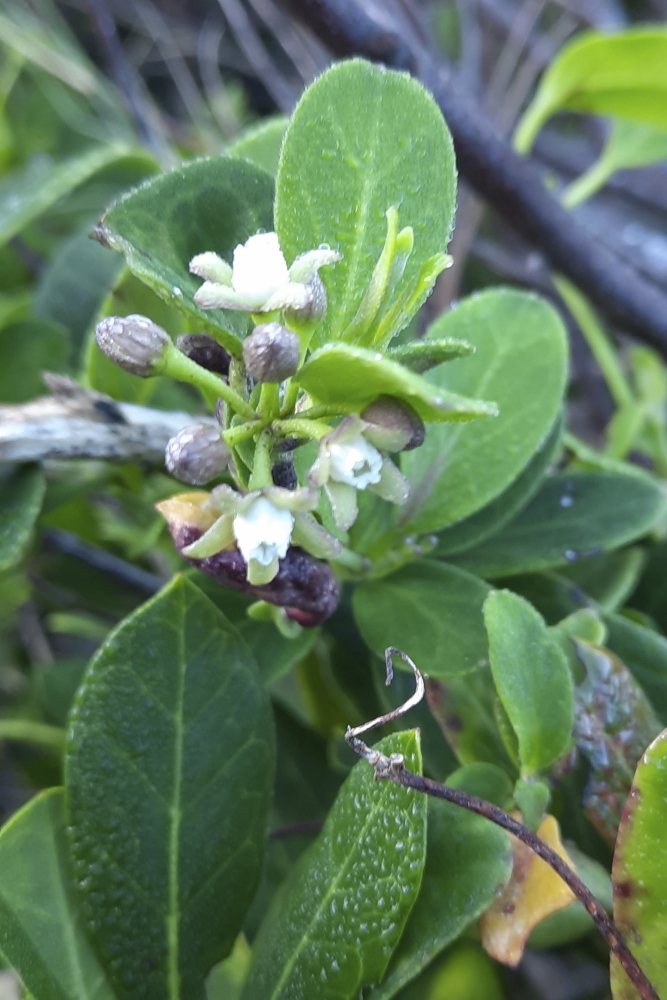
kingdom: Plantae
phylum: Tracheophyta
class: Magnoliopsida
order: Gentianales
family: Apocynaceae
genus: Cynanchum
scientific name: Cynanchum ellipticum
